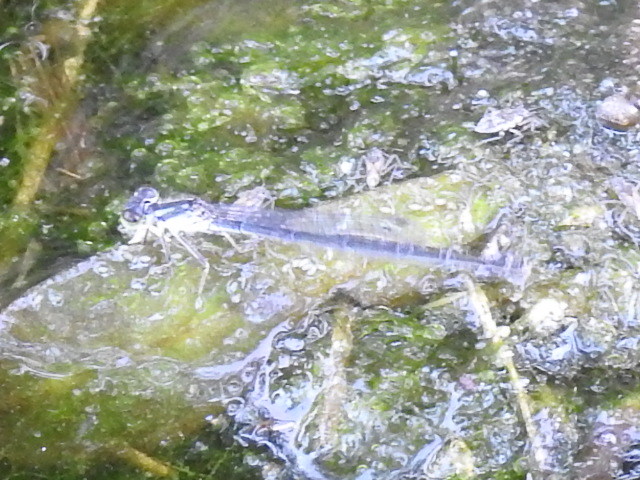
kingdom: Animalia
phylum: Arthropoda
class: Insecta
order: Odonata
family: Coenagrionidae
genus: Ischnura
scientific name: Ischnura posita
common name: Fragile forktail
